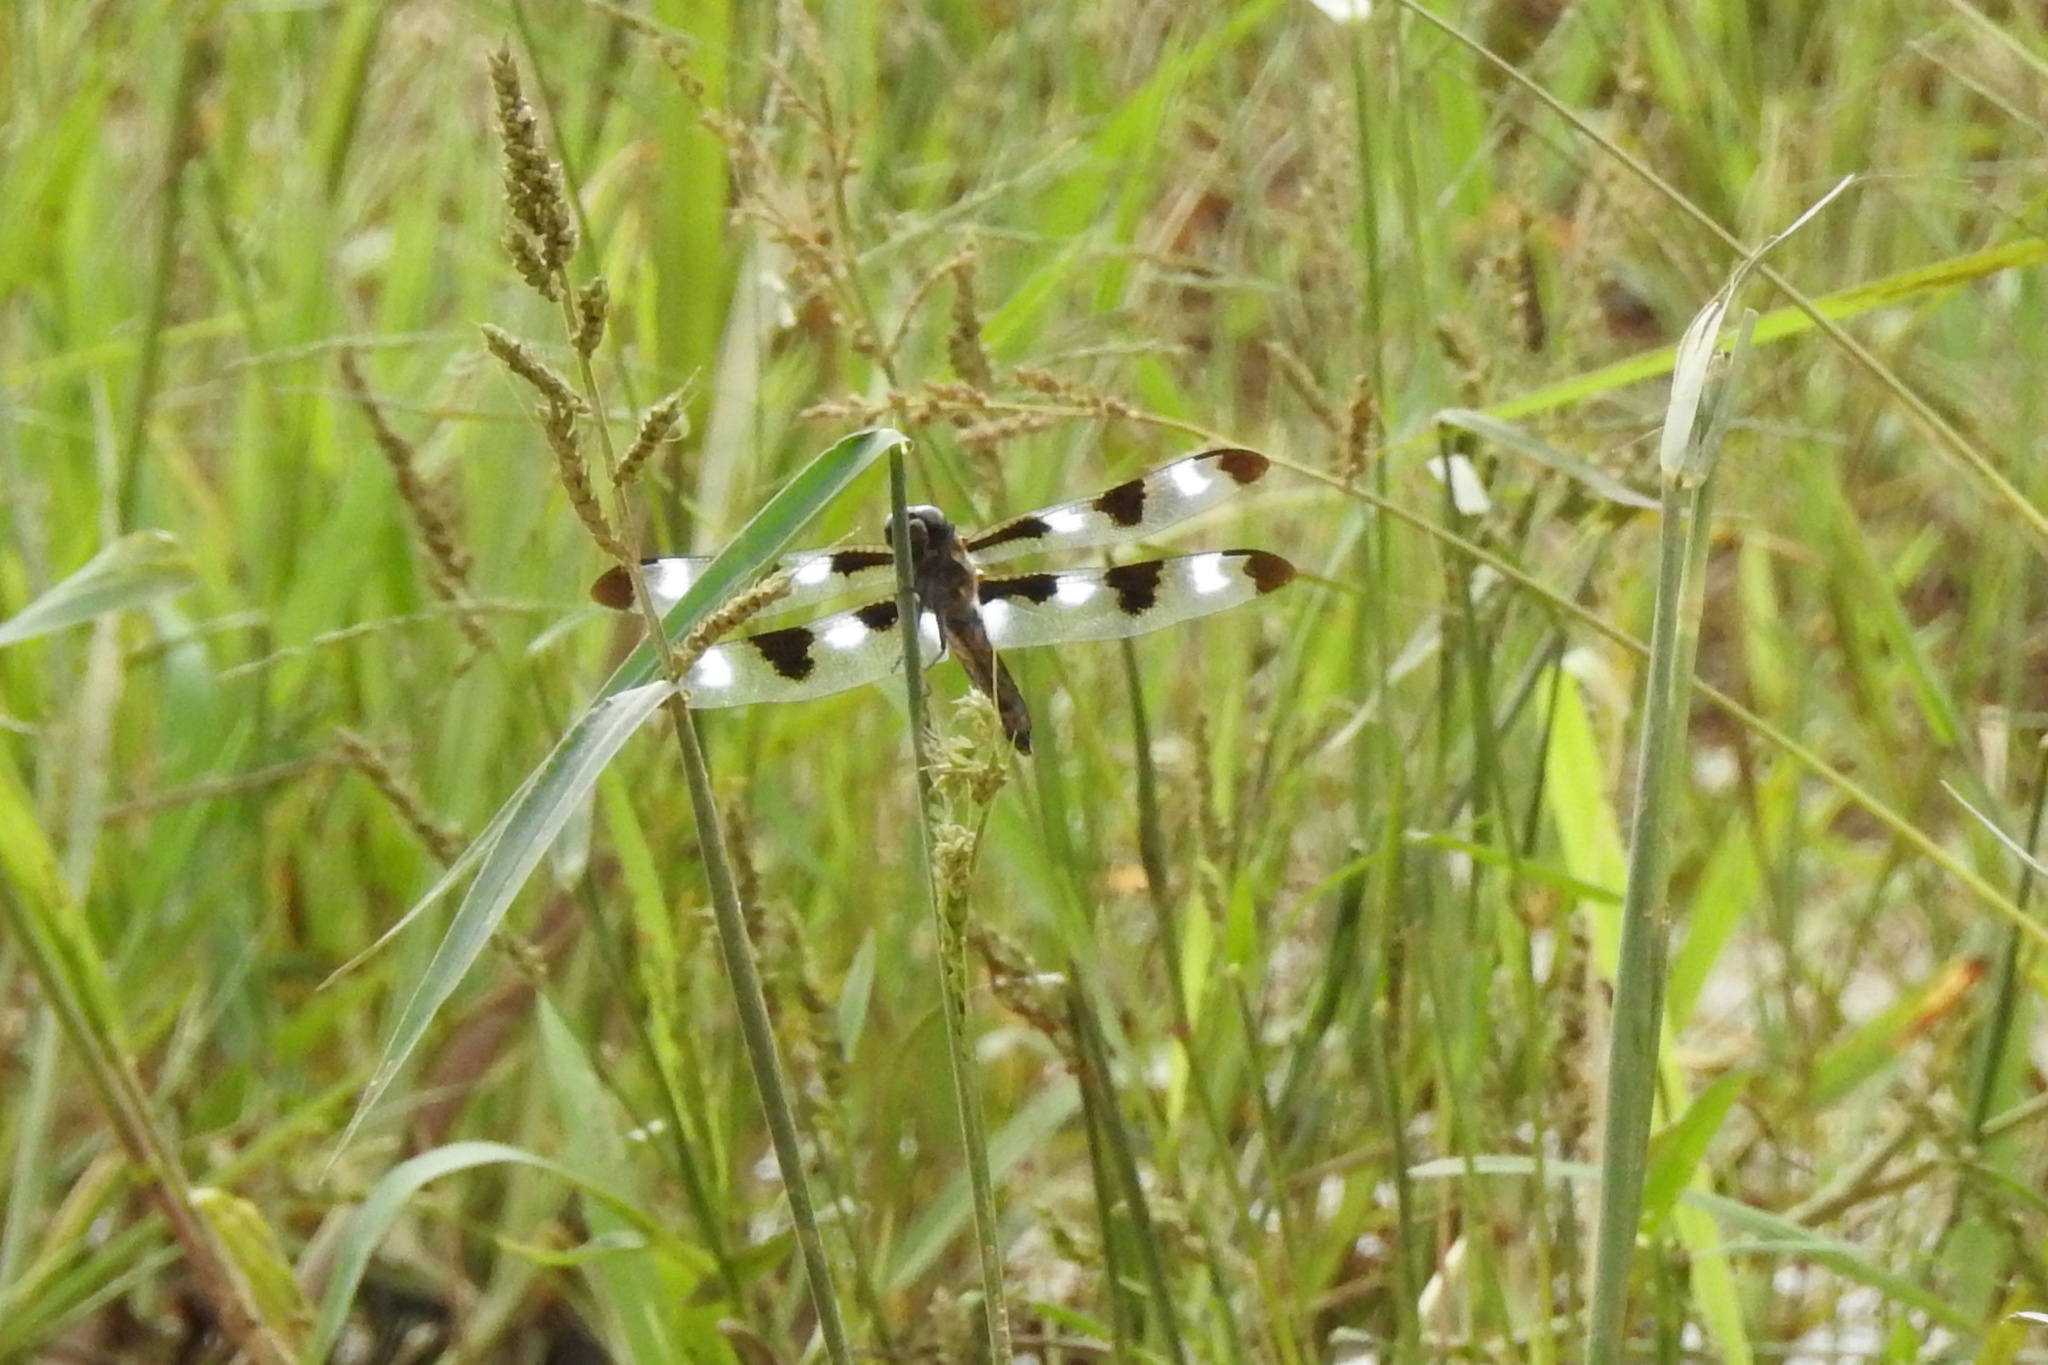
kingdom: Animalia
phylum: Arthropoda
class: Insecta
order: Odonata
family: Libellulidae
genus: Libellula
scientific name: Libellula pulchella
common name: Twelve-spotted skimmer
